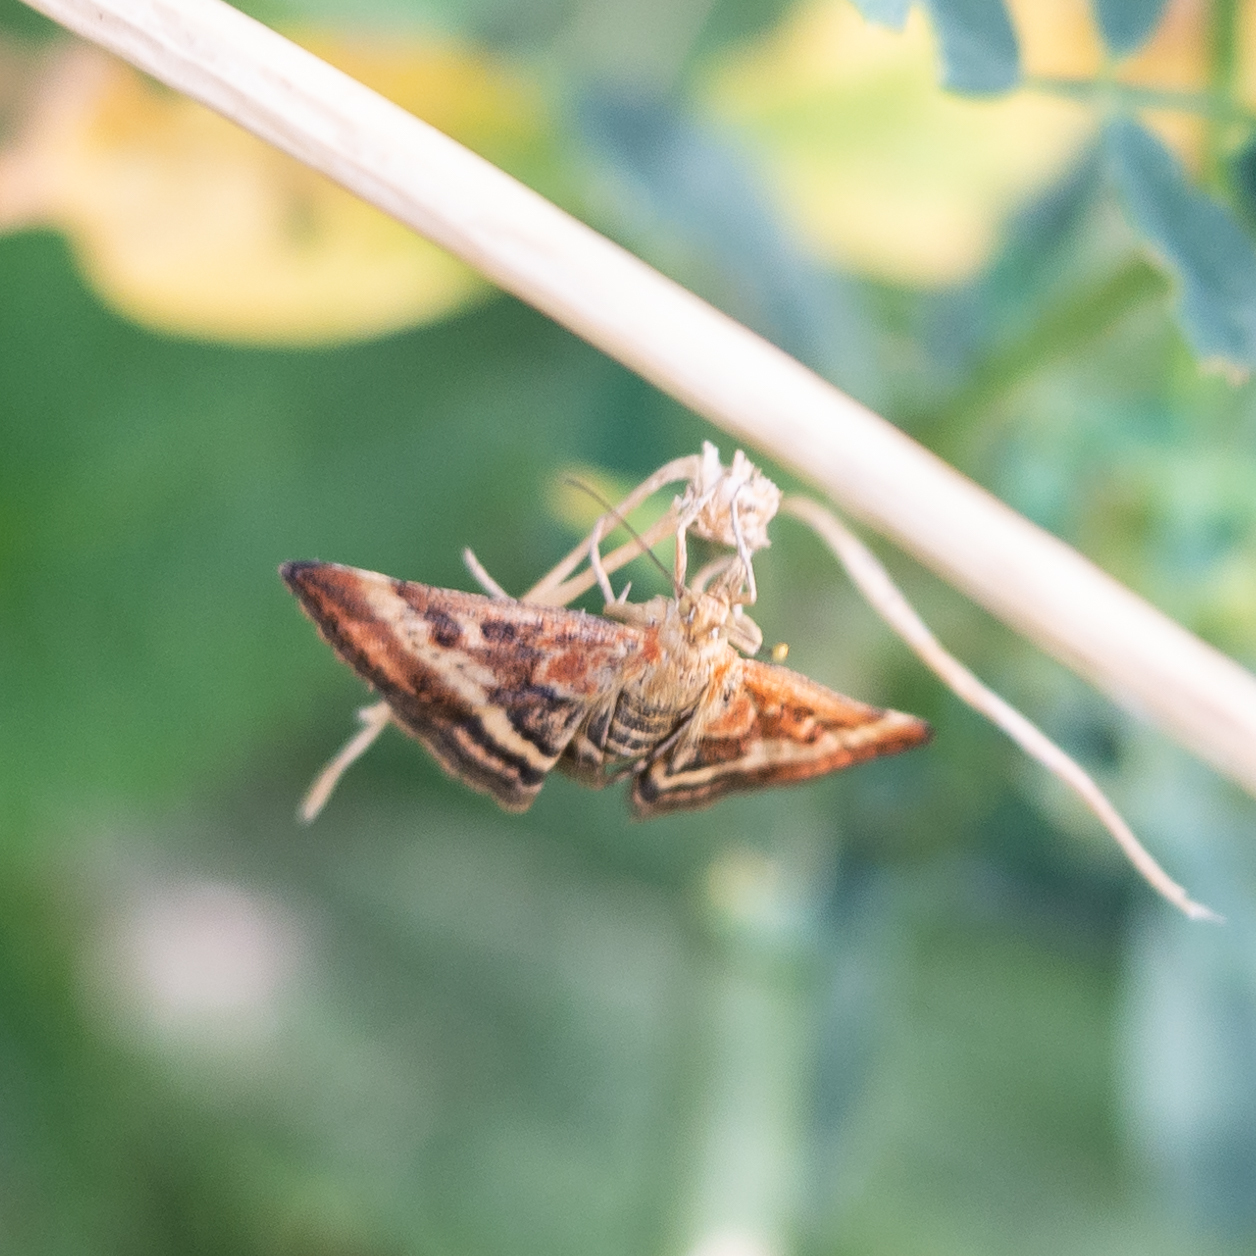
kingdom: Animalia
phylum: Arthropoda
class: Insecta
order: Lepidoptera
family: Crambidae
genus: Pyrausta
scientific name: Pyrausta despicata
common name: Straw-barred pearl
